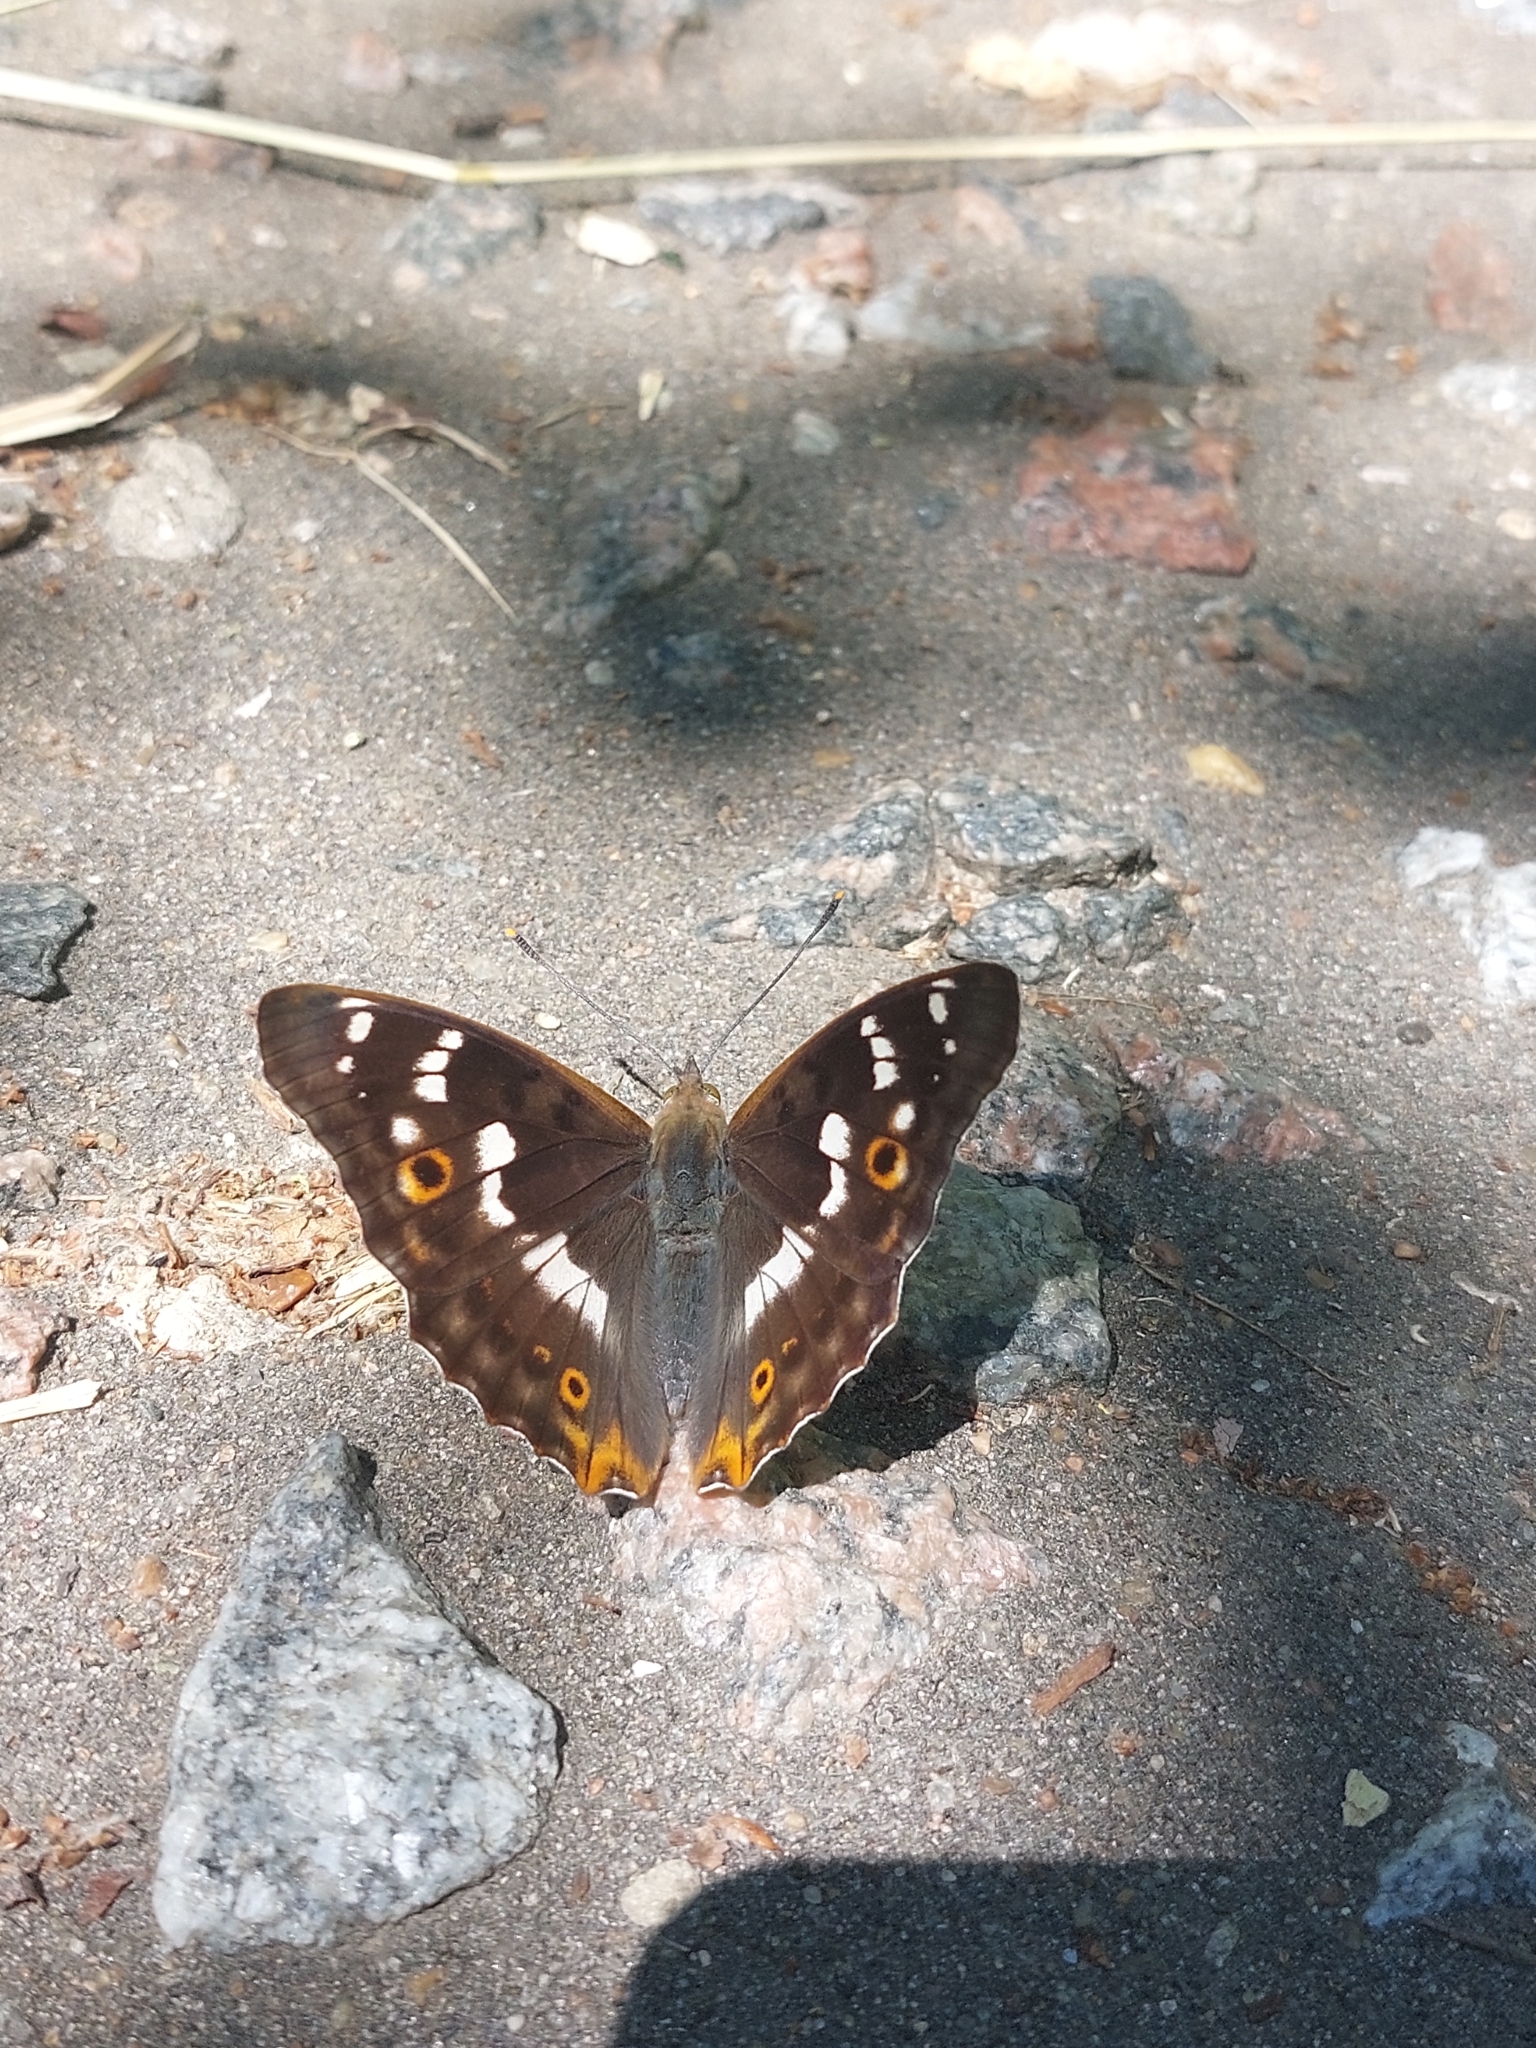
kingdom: Animalia
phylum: Arthropoda
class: Insecta
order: Lepidoptera
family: Nymphalidae
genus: Apatura
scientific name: Apatura ilia
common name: Lesser purple emperor
